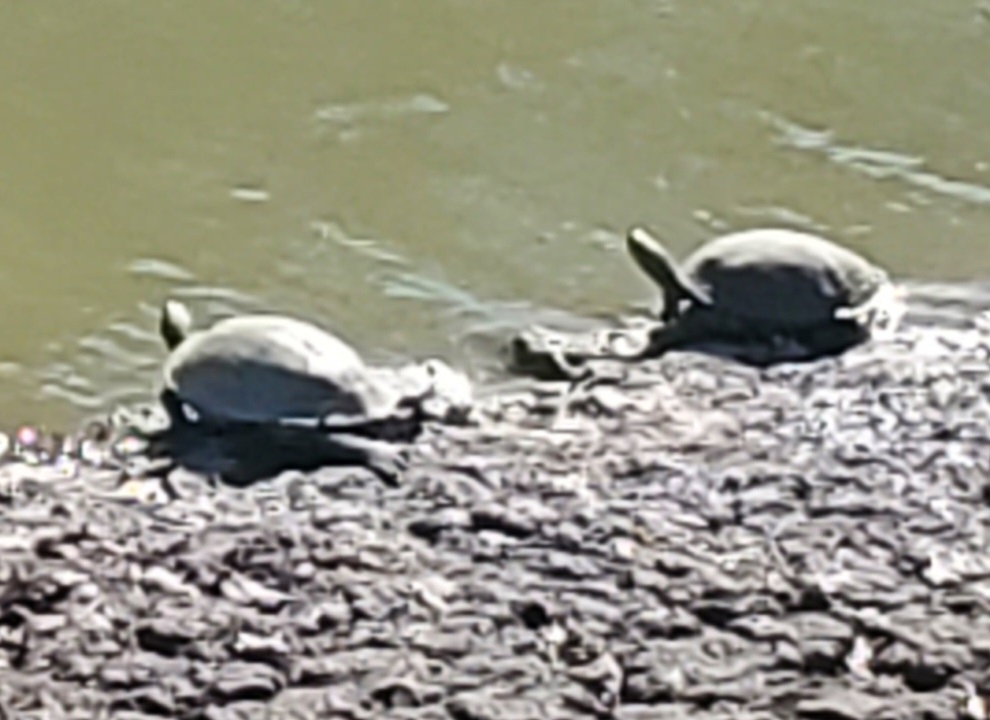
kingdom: Animalia
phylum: Chordata
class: Testudines
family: Emydidae
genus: Pseudemys
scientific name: Pseudemys texana
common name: Texas river cooter
